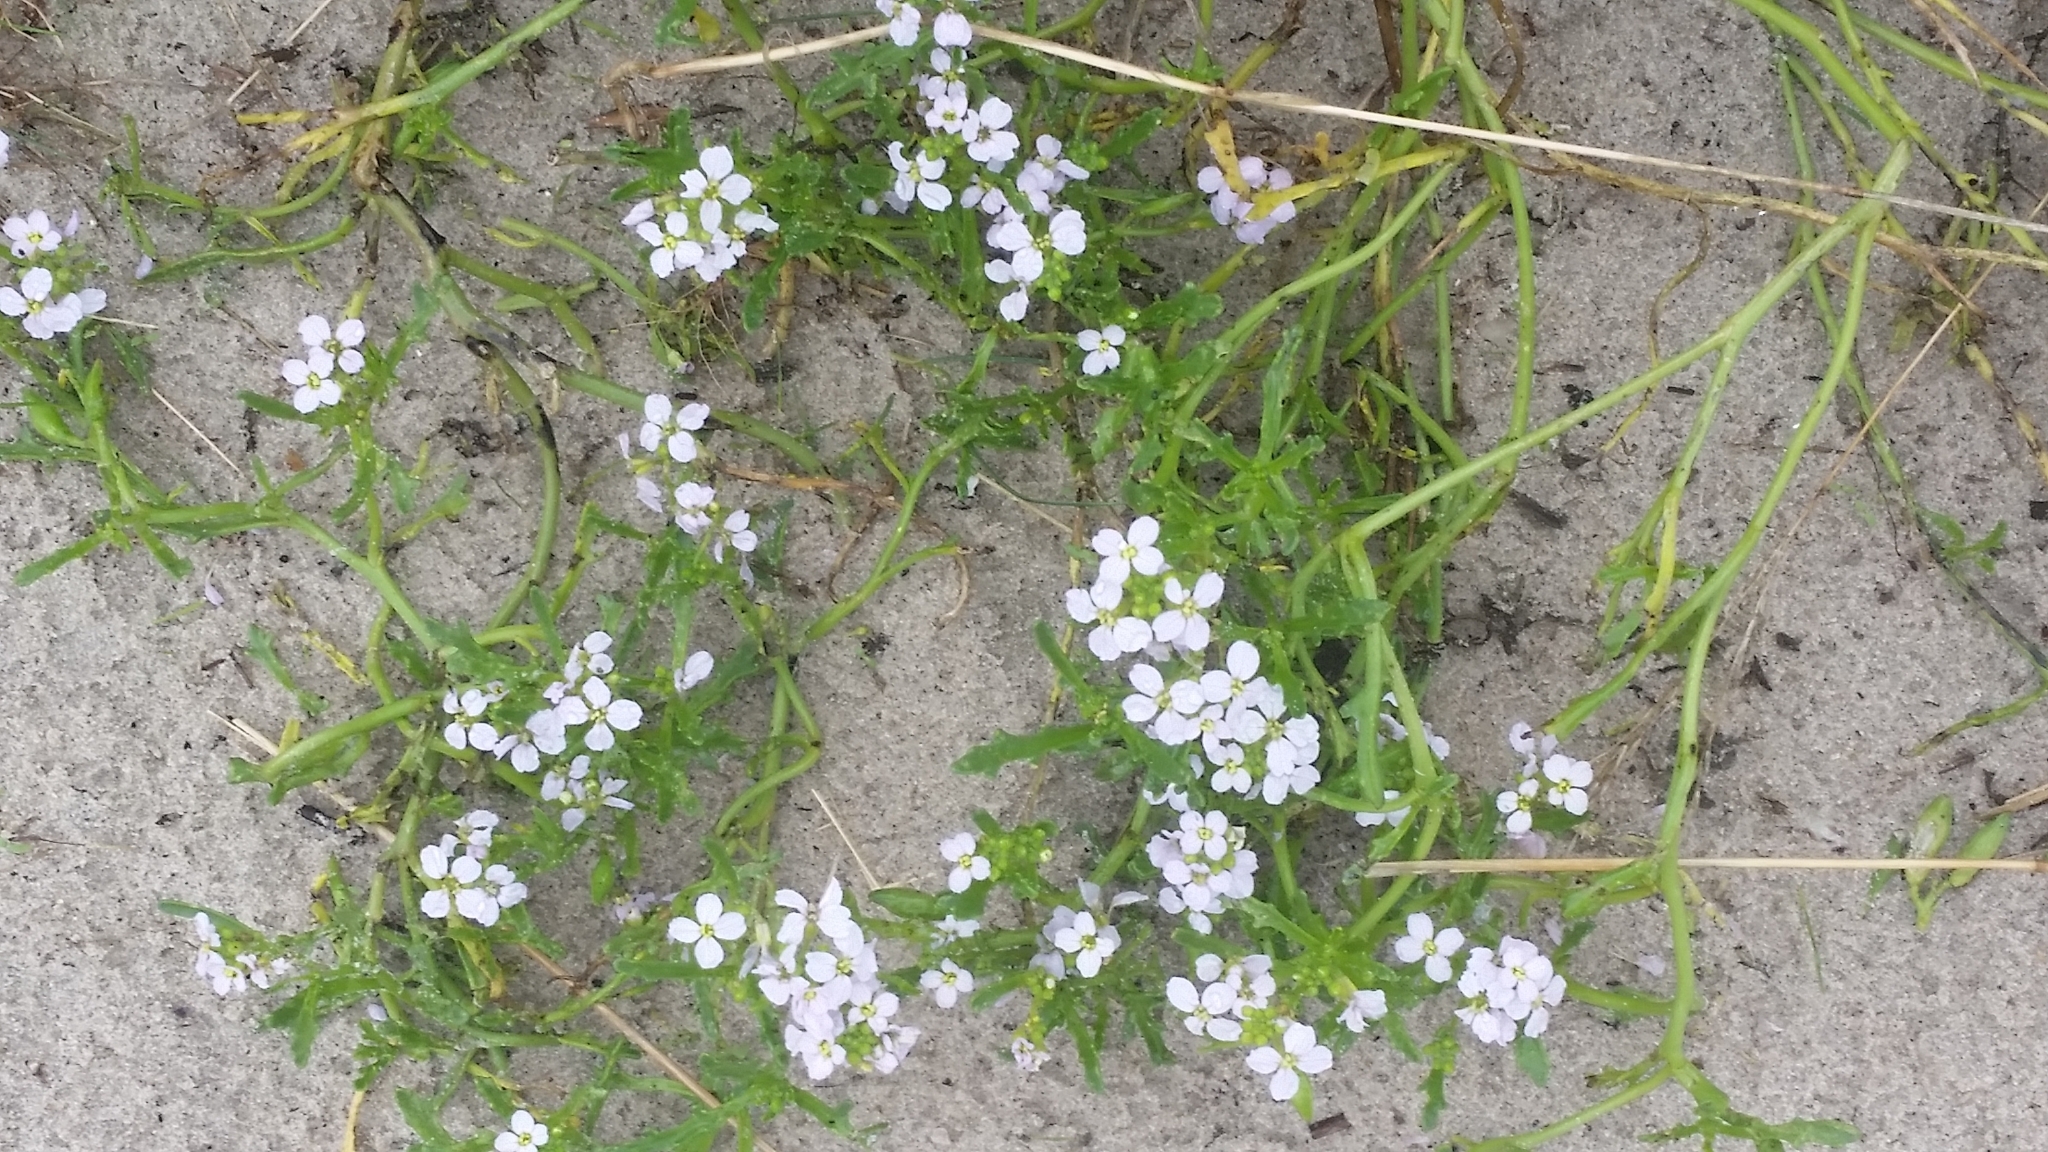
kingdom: Plantae
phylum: Tracheophyta
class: Magnoliopsida
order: Brassicales
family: Brassicaceae
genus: Cakile
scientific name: Cakile maritima
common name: Sea rocket
